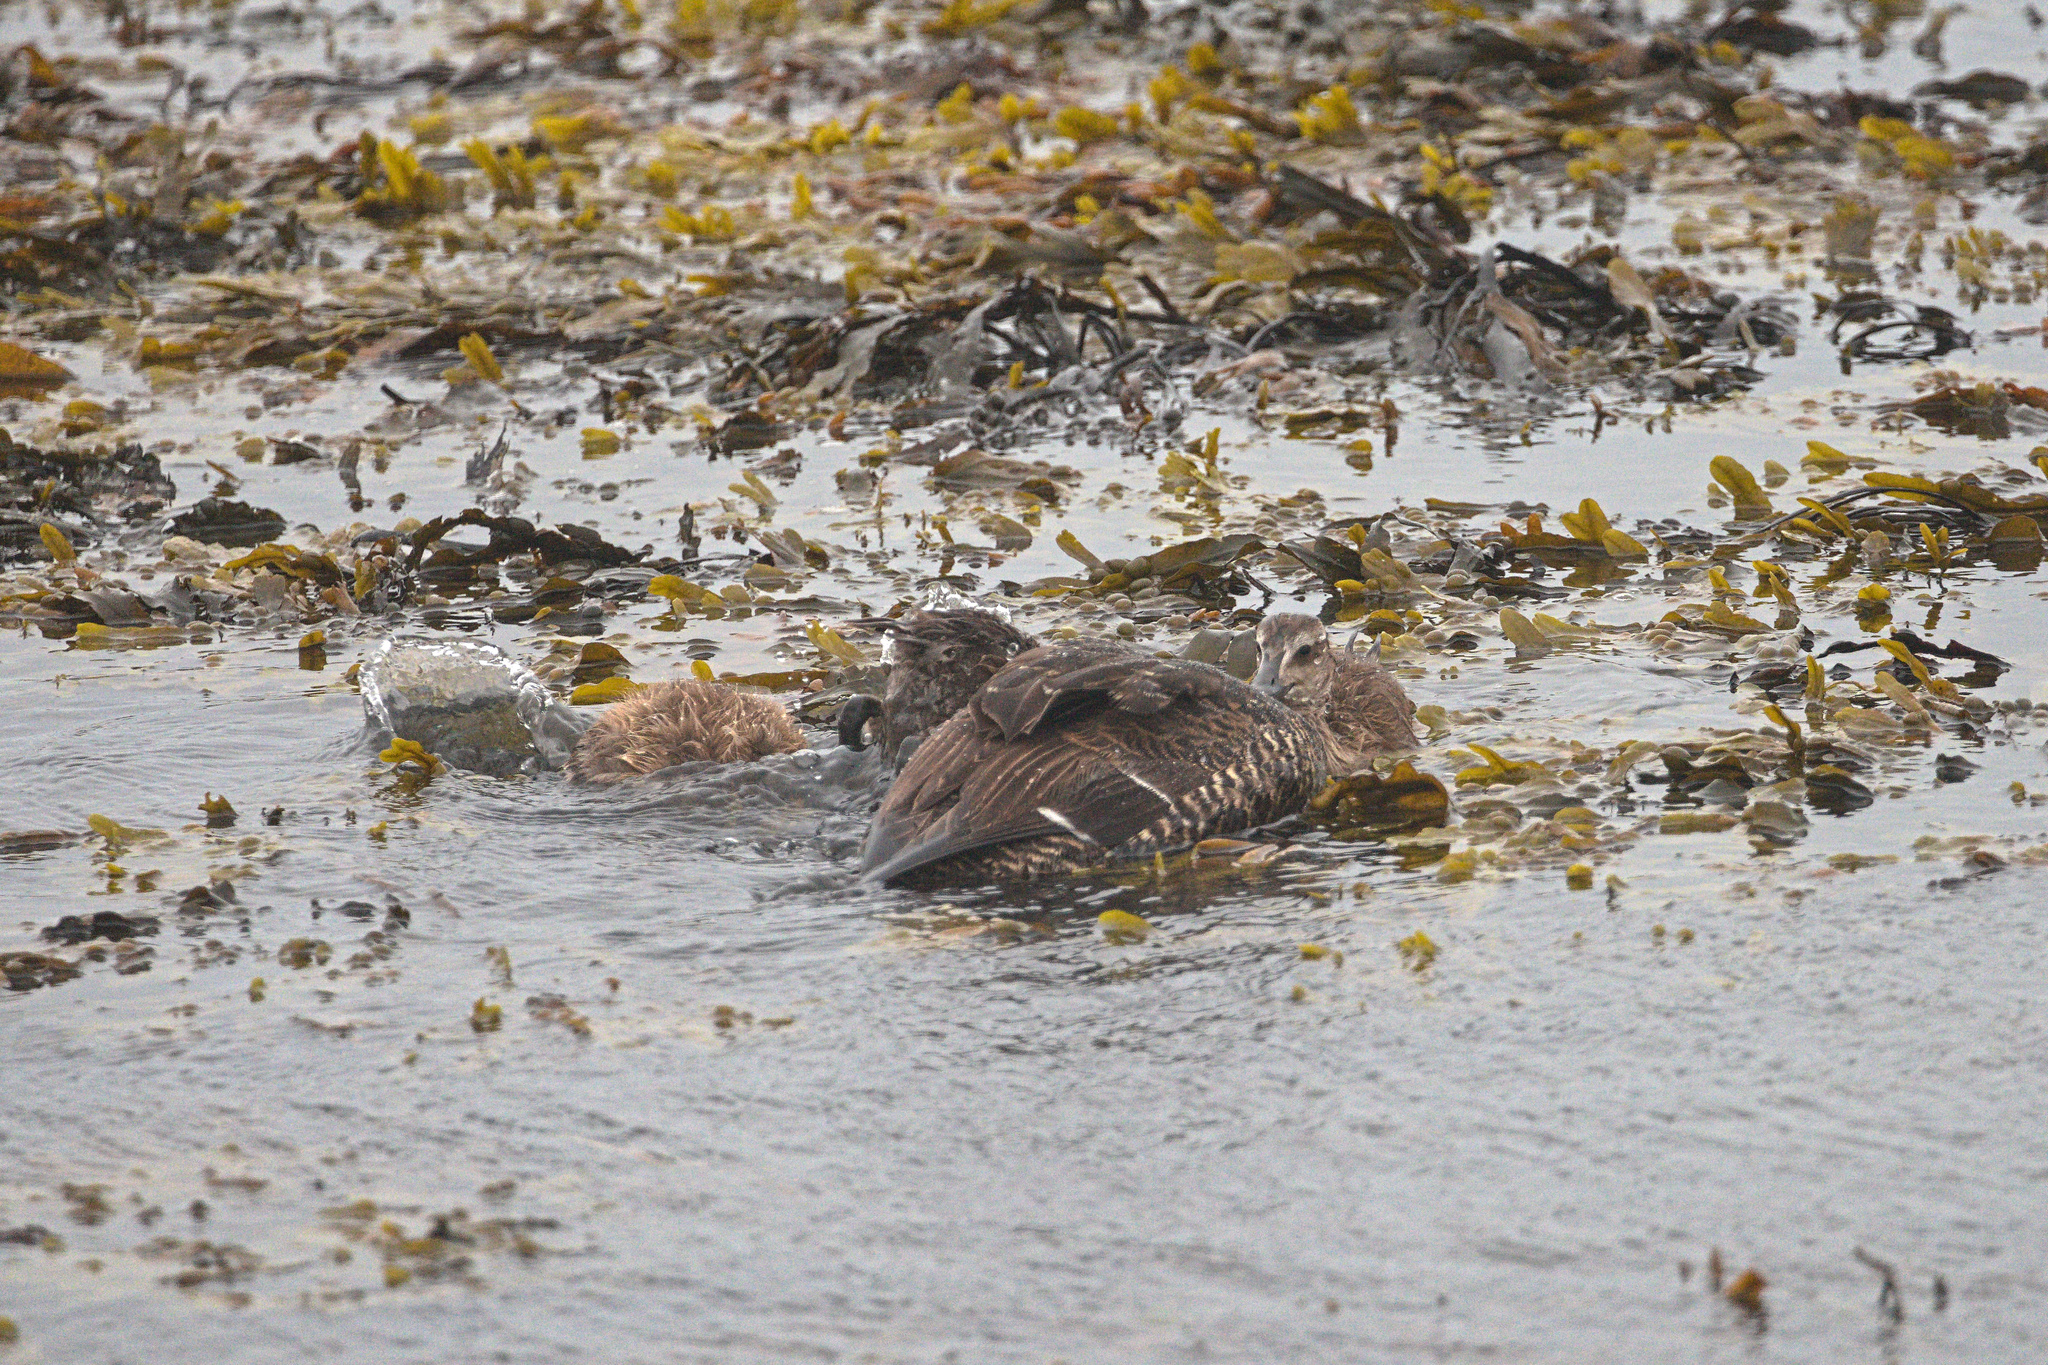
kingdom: Animalia
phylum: Chordata
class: Aves
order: Anseriformes
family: Anatidae
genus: Somateria
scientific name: Somateria mollissima
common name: Common eider
